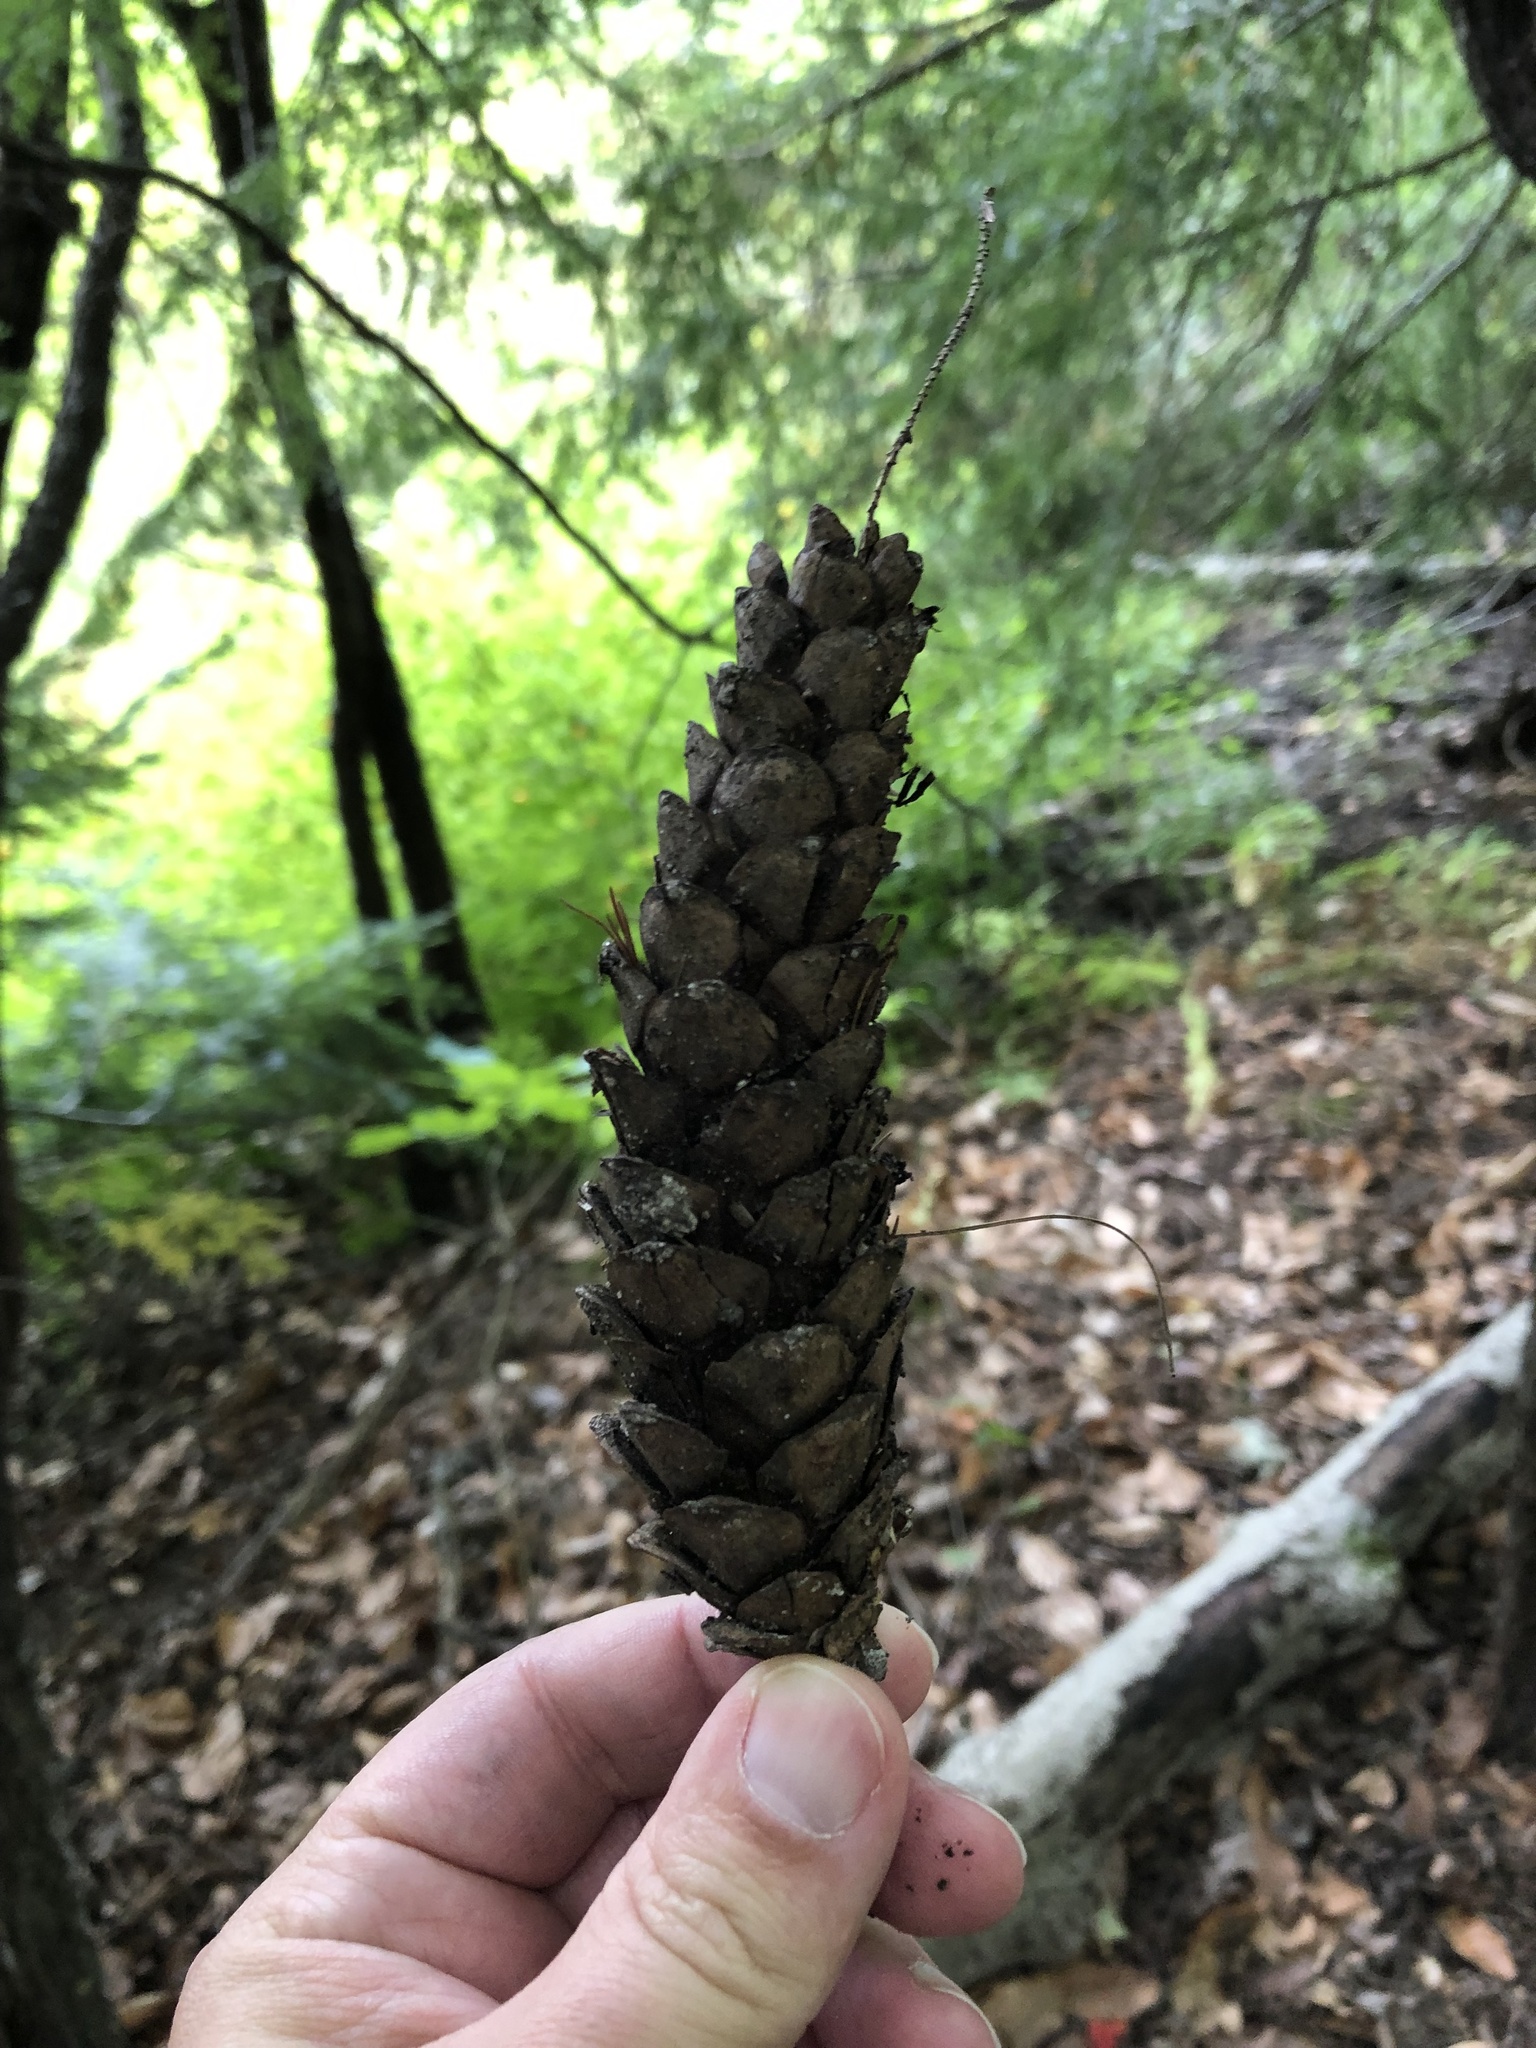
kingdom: Plantae
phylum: Tracheophyta
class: Pinopsida
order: Pinales
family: Pinaceae
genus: Pinus
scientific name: Pinus strobus
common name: Weymouth pine
